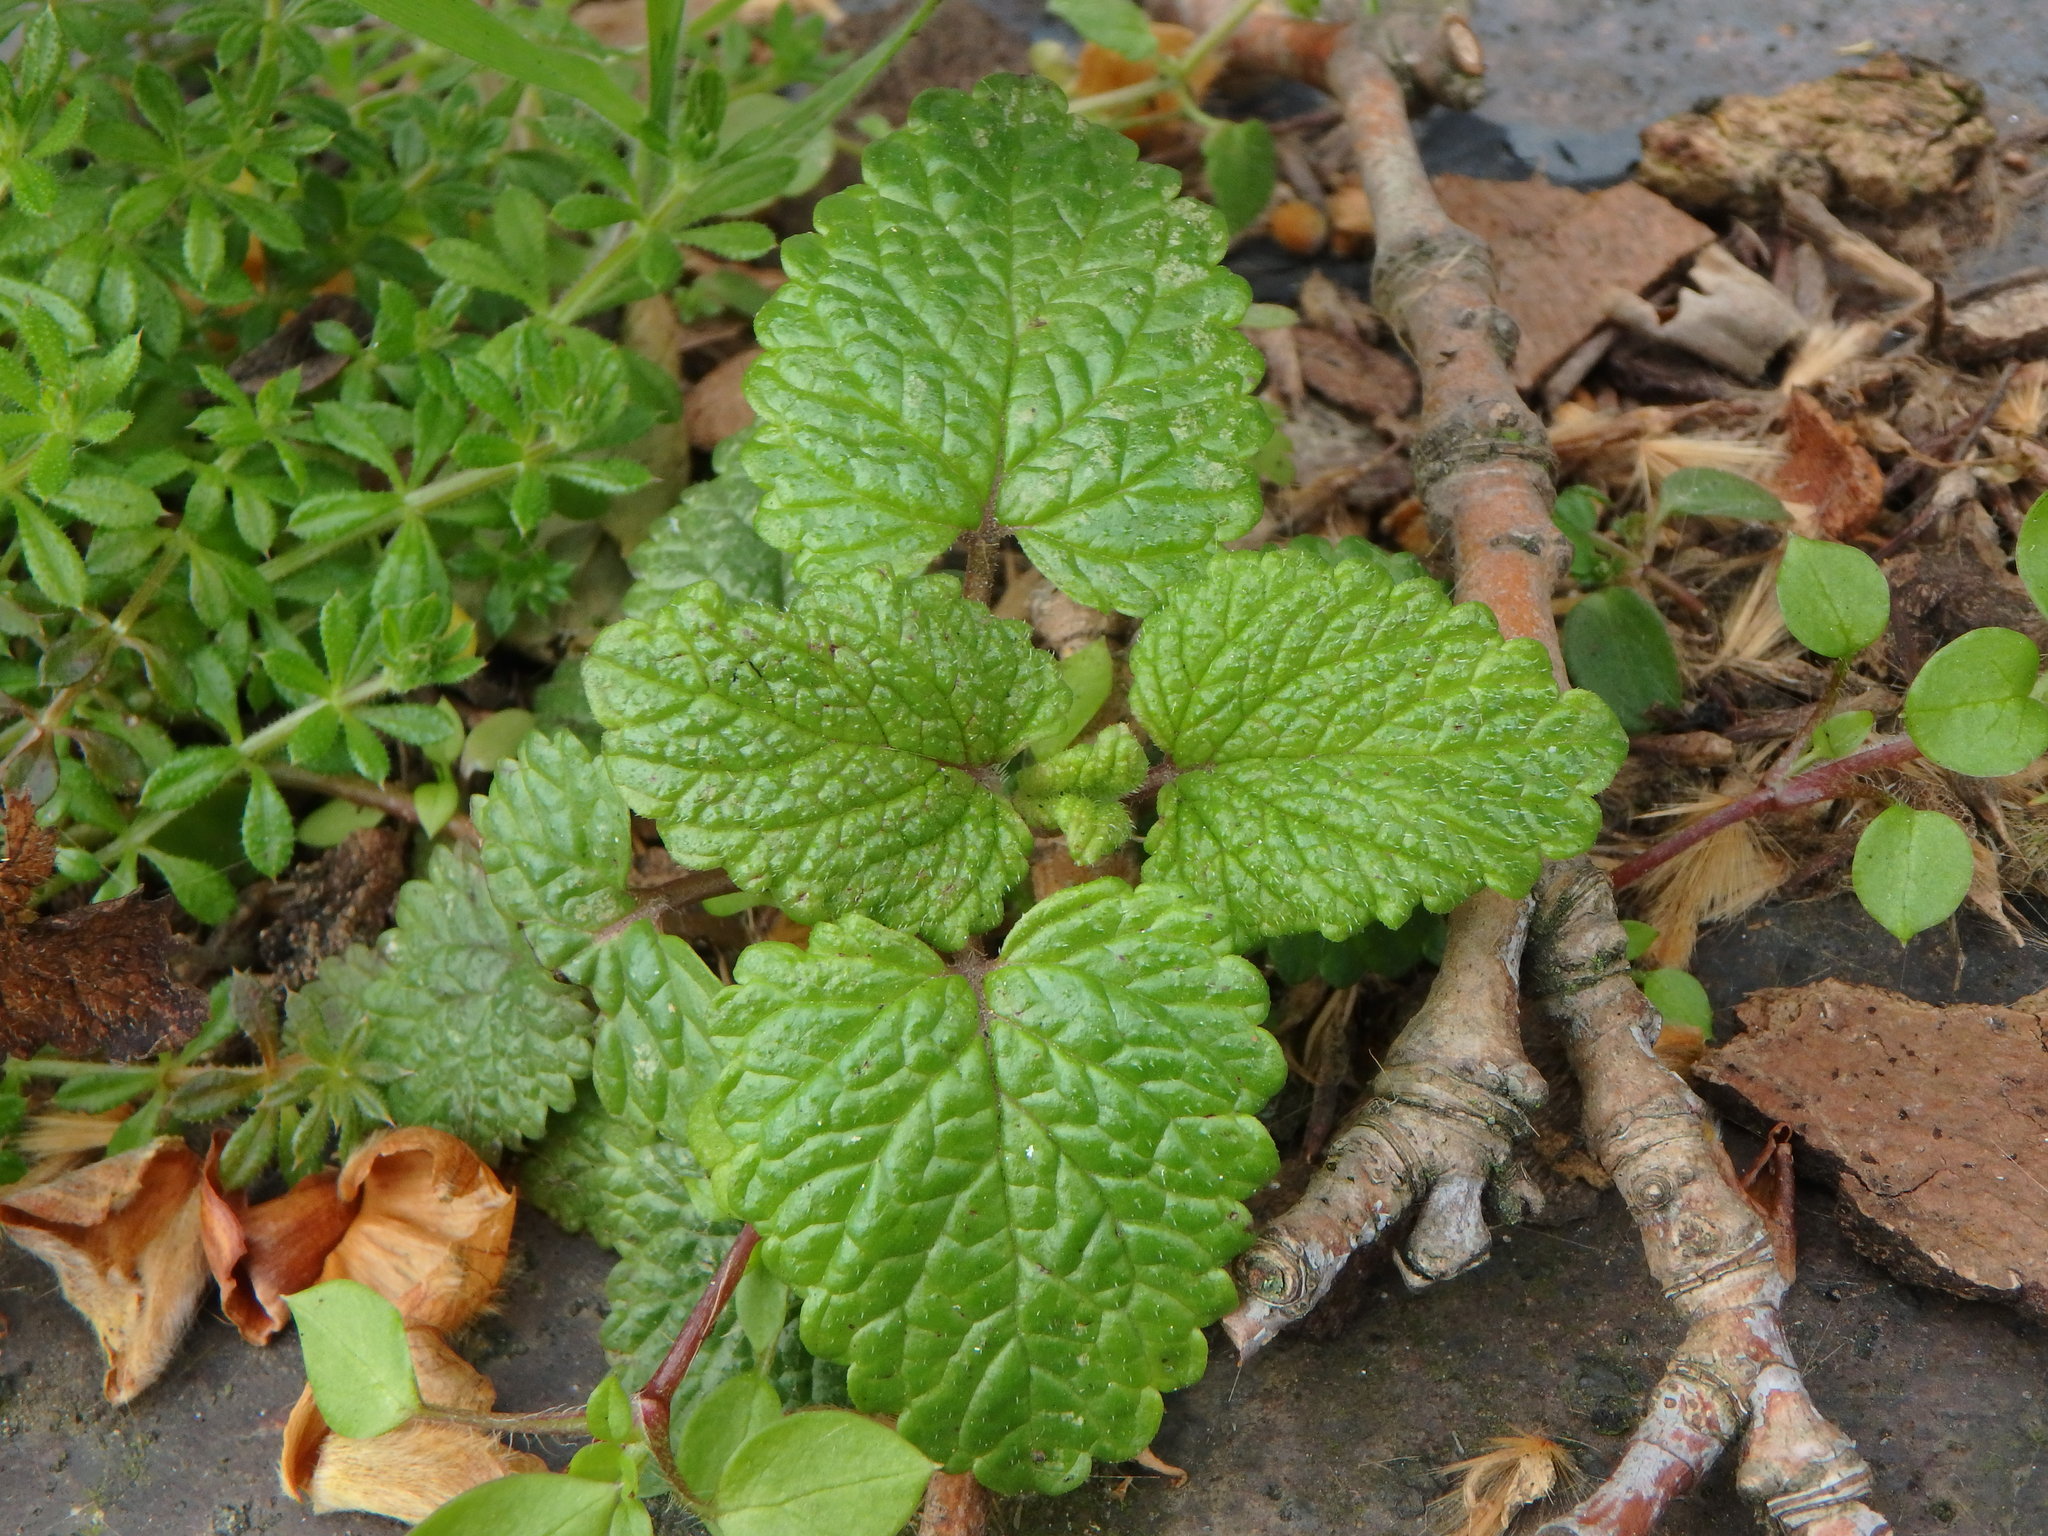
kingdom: Plantae
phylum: Tracheophyta
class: Magnoliopsida
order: Lamiales
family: Lamiaceae
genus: Melissa
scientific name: Melissa officinalis
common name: Balm
